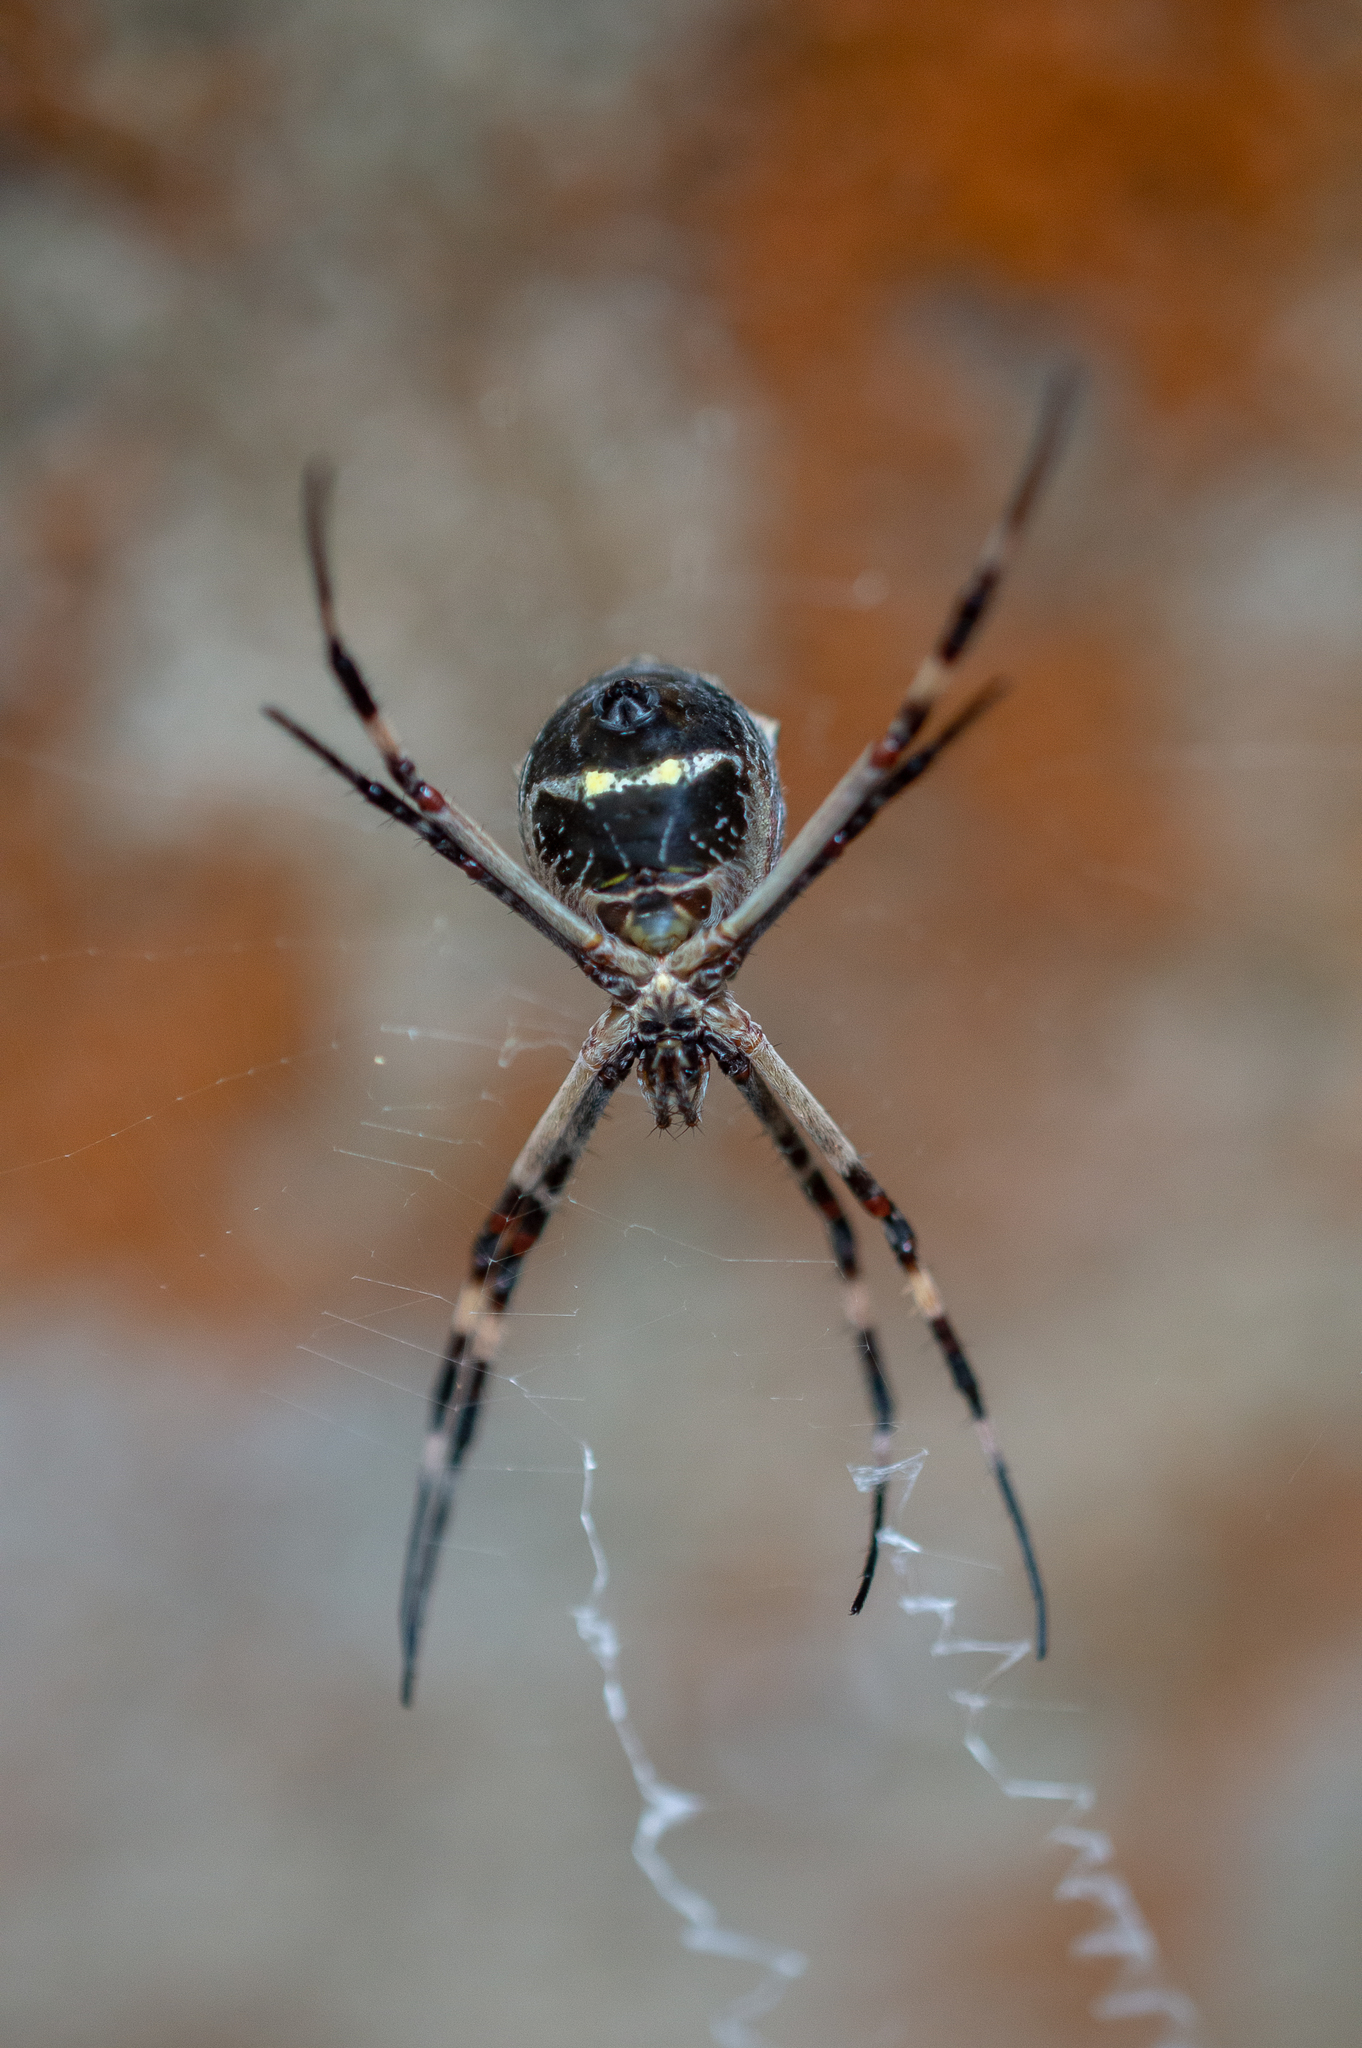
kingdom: Animalia
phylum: Arthropoda
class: Arachnida
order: Araneae
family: Araneidae
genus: Argiope
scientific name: Argiope argentata
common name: Orb weavers
